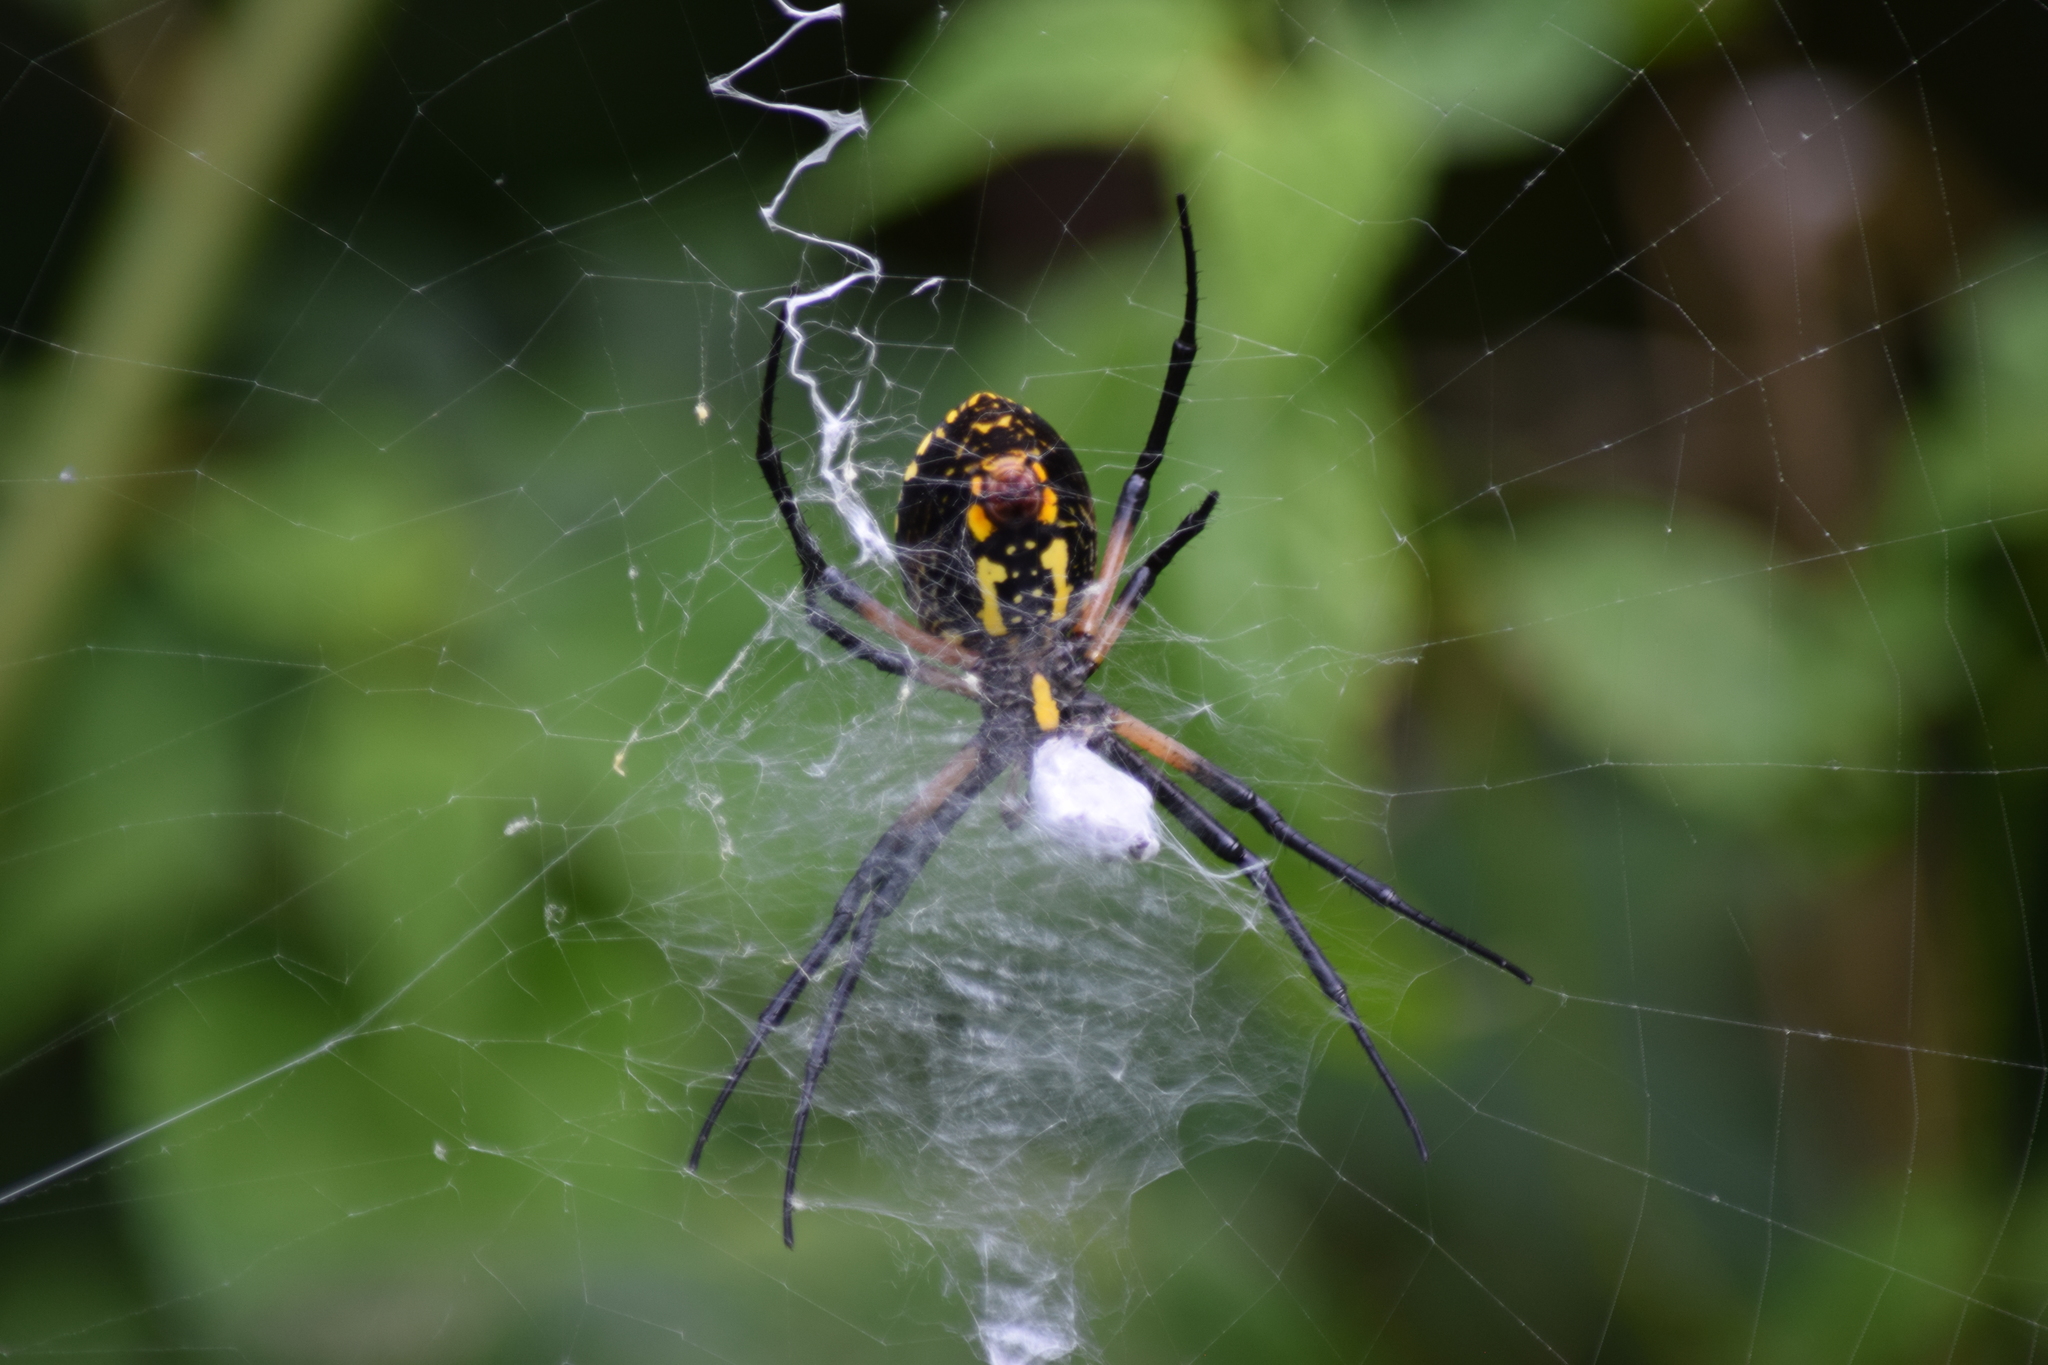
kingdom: Animalia
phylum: Arthropoda
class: Arachnida
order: Araneae
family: Araneidae
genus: Argiope
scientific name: Argiope aurantia
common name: Orb weavers
